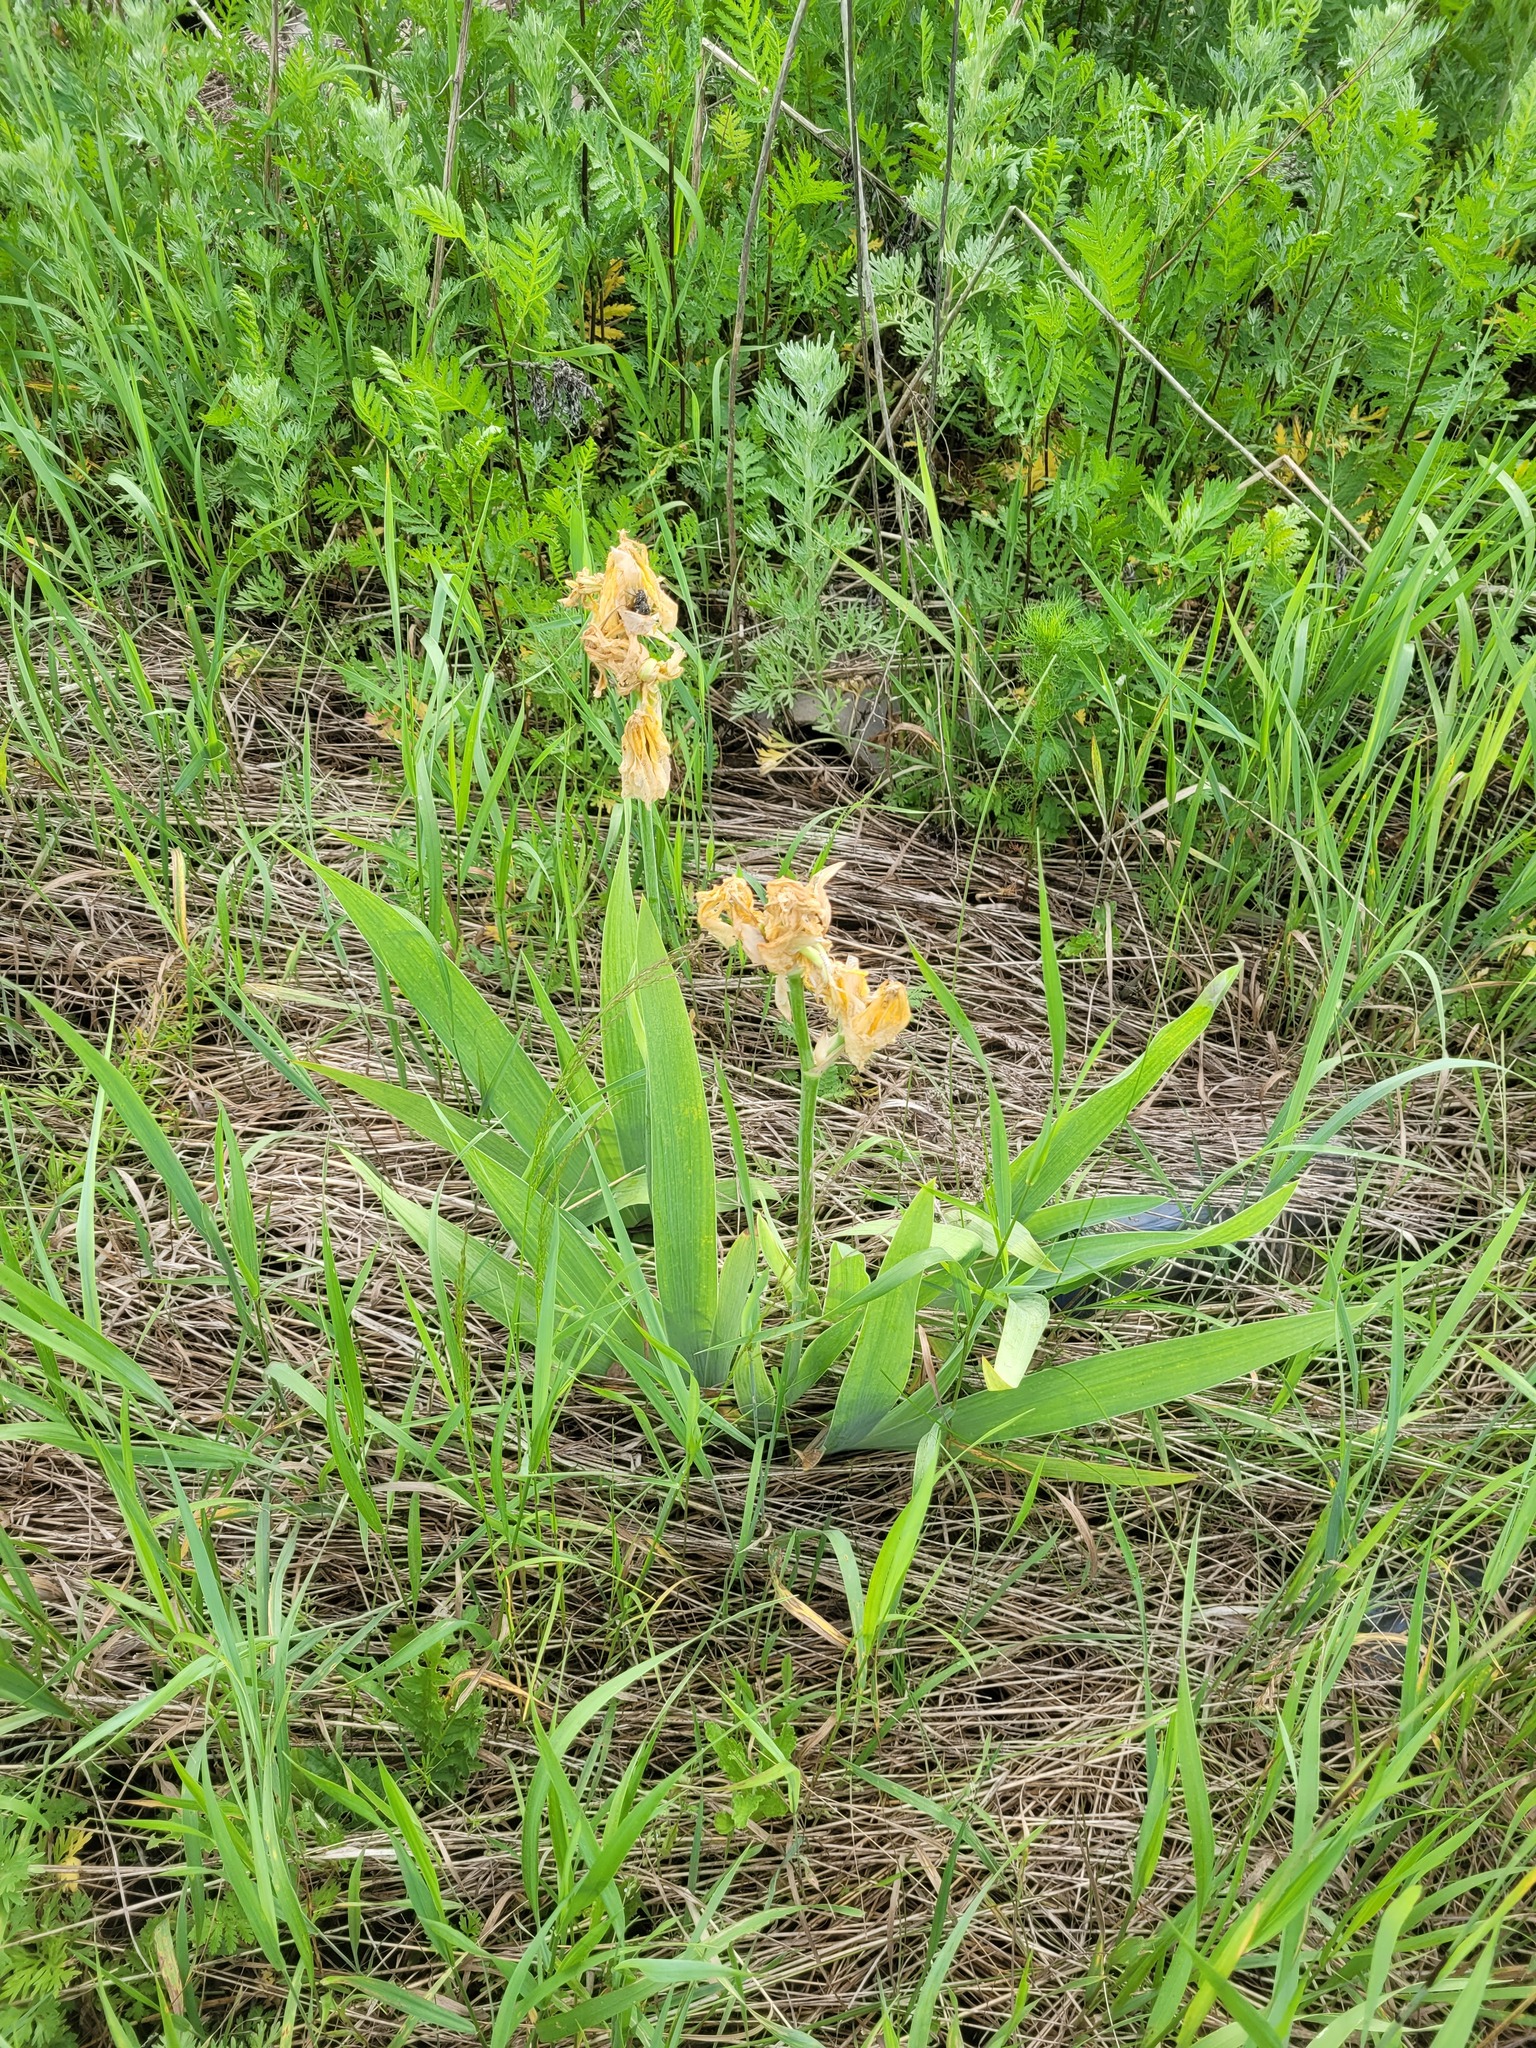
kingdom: Plantae
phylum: Tracheophyta
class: Liliopsida
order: Asparagales
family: Iridaceae
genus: Iris
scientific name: Iris hybrida
